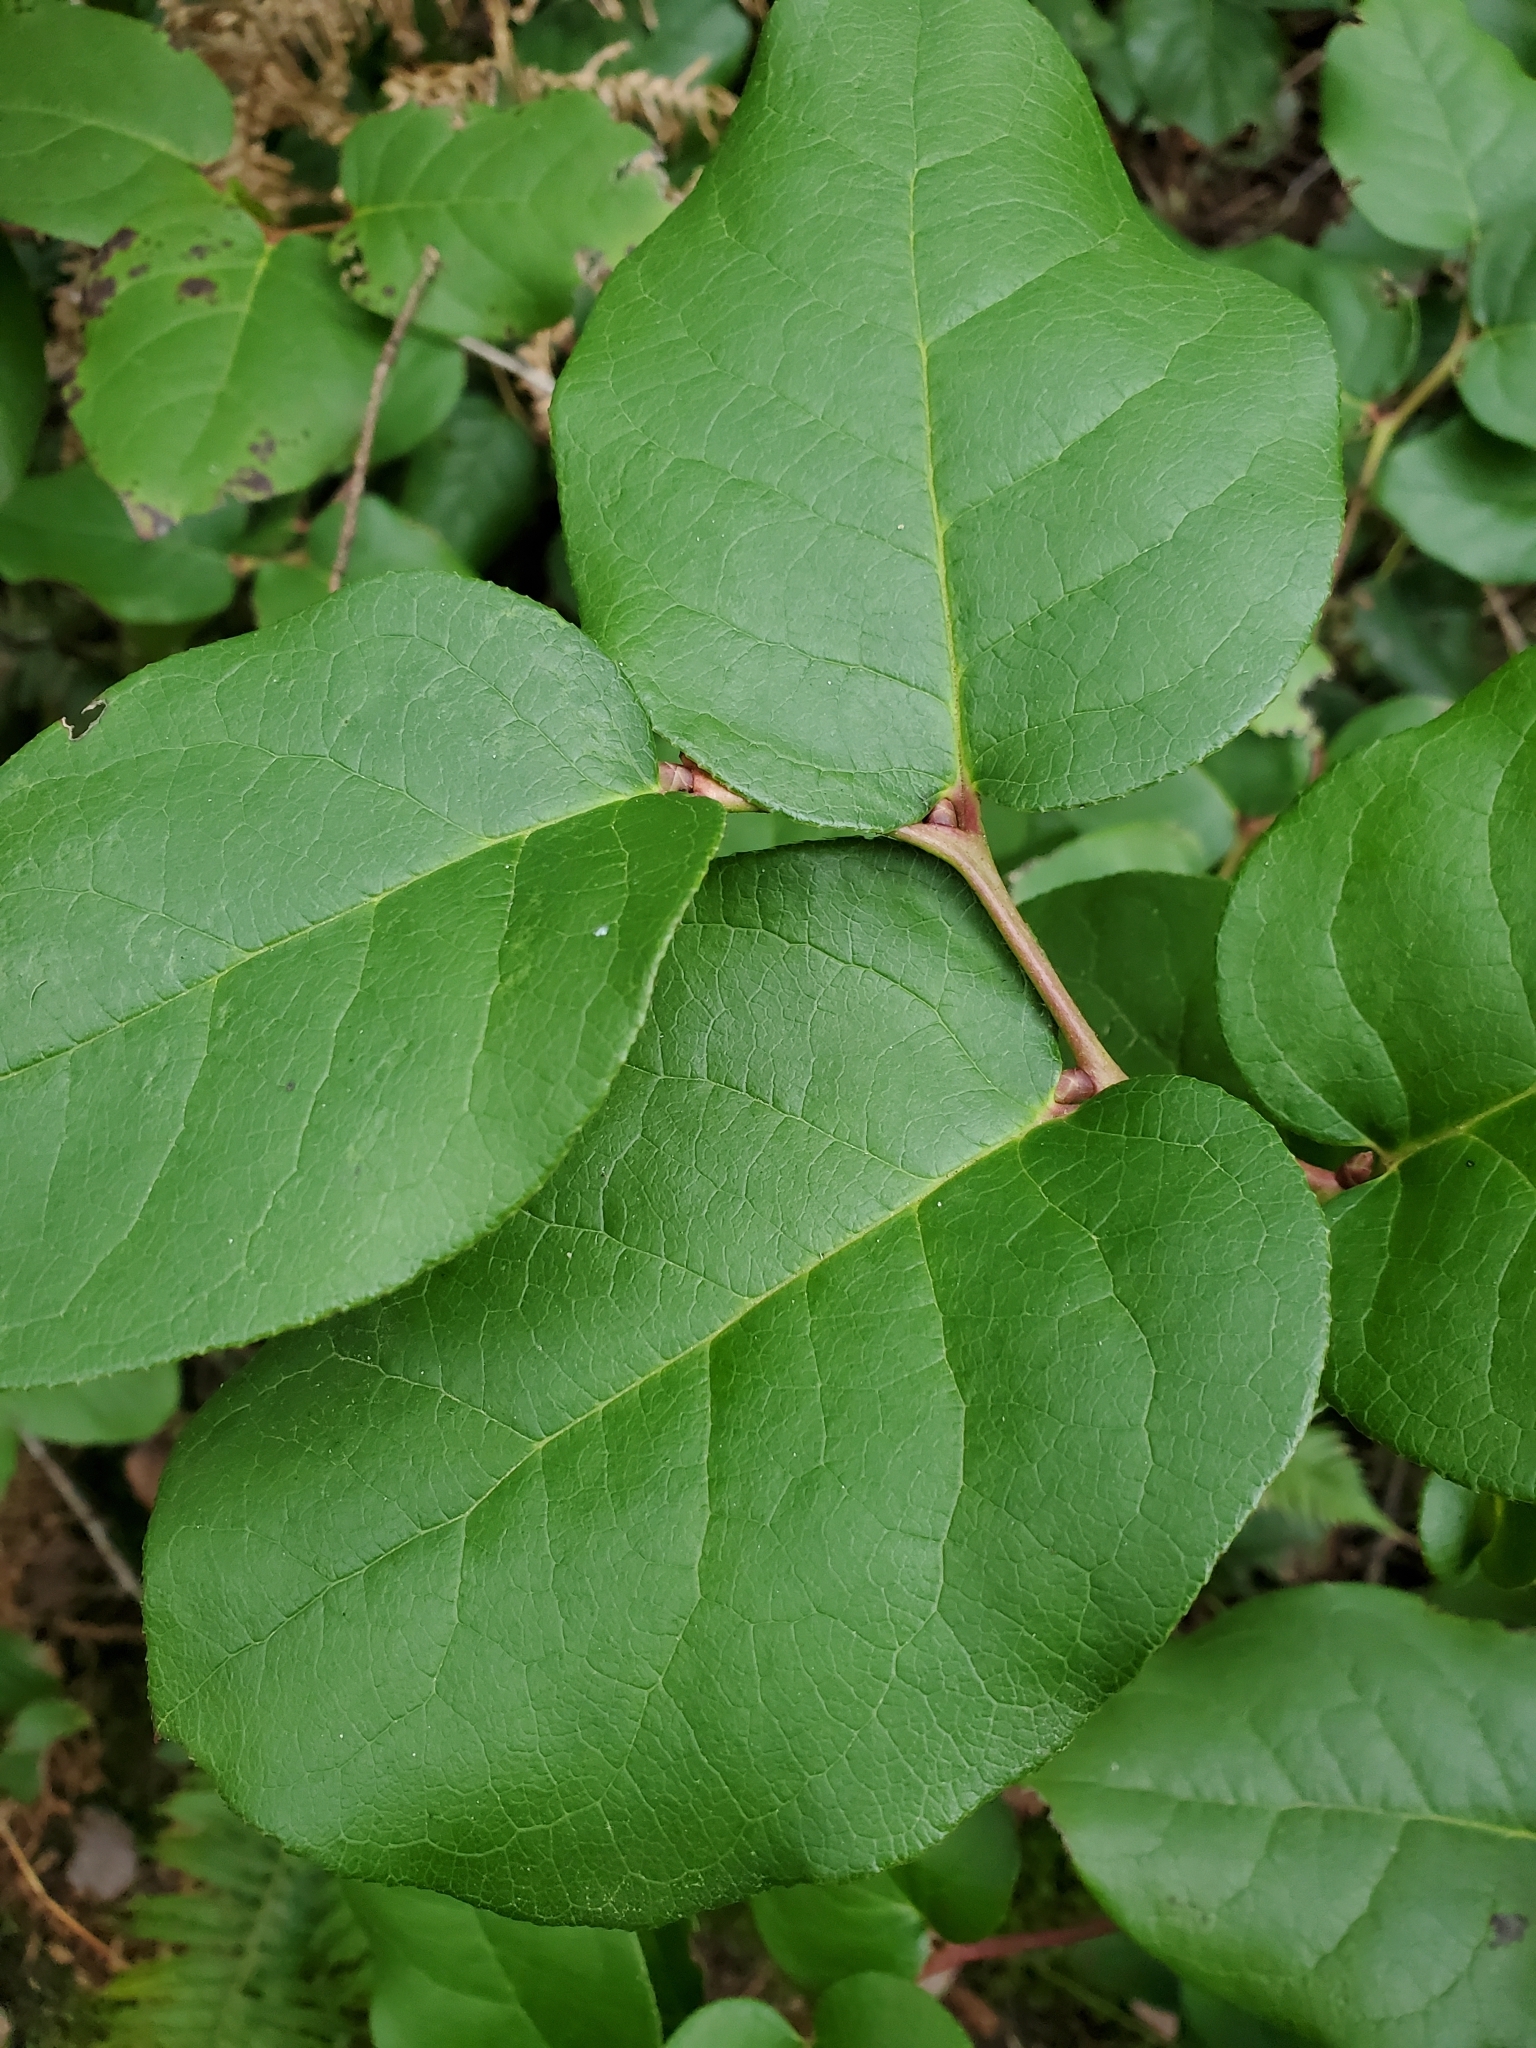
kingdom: Plantae
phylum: Tracheophyta
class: Magnoliopsida
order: Ericales
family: Ericaceae
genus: Gaultheria
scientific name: Gaultheria shallon
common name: Shallon
